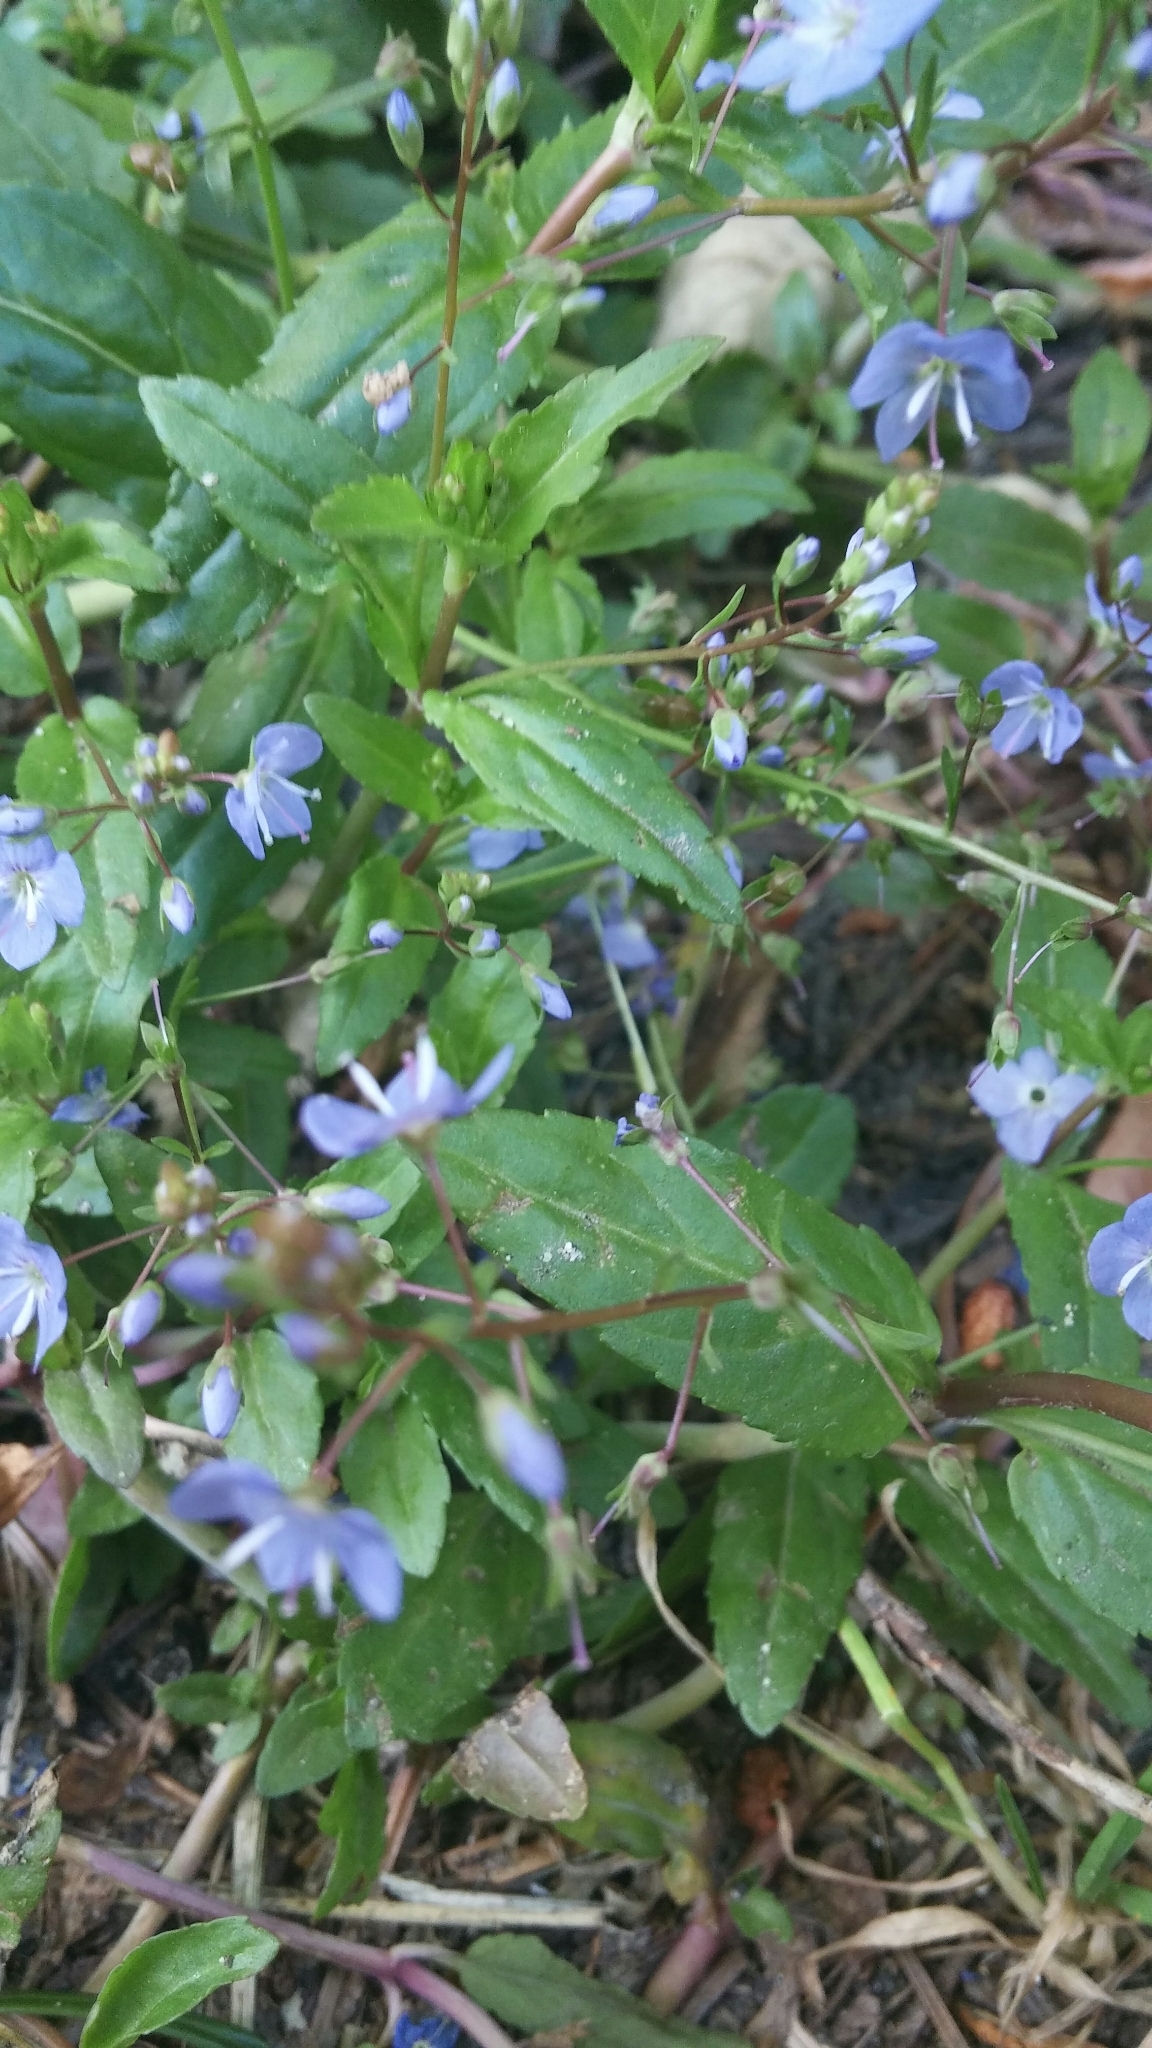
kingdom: Plantae
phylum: Tracheophyta
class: Magnoliopsida
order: Lamiales
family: Plantaginaceae
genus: Veronica
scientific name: Veronica americana
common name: American brooklime
